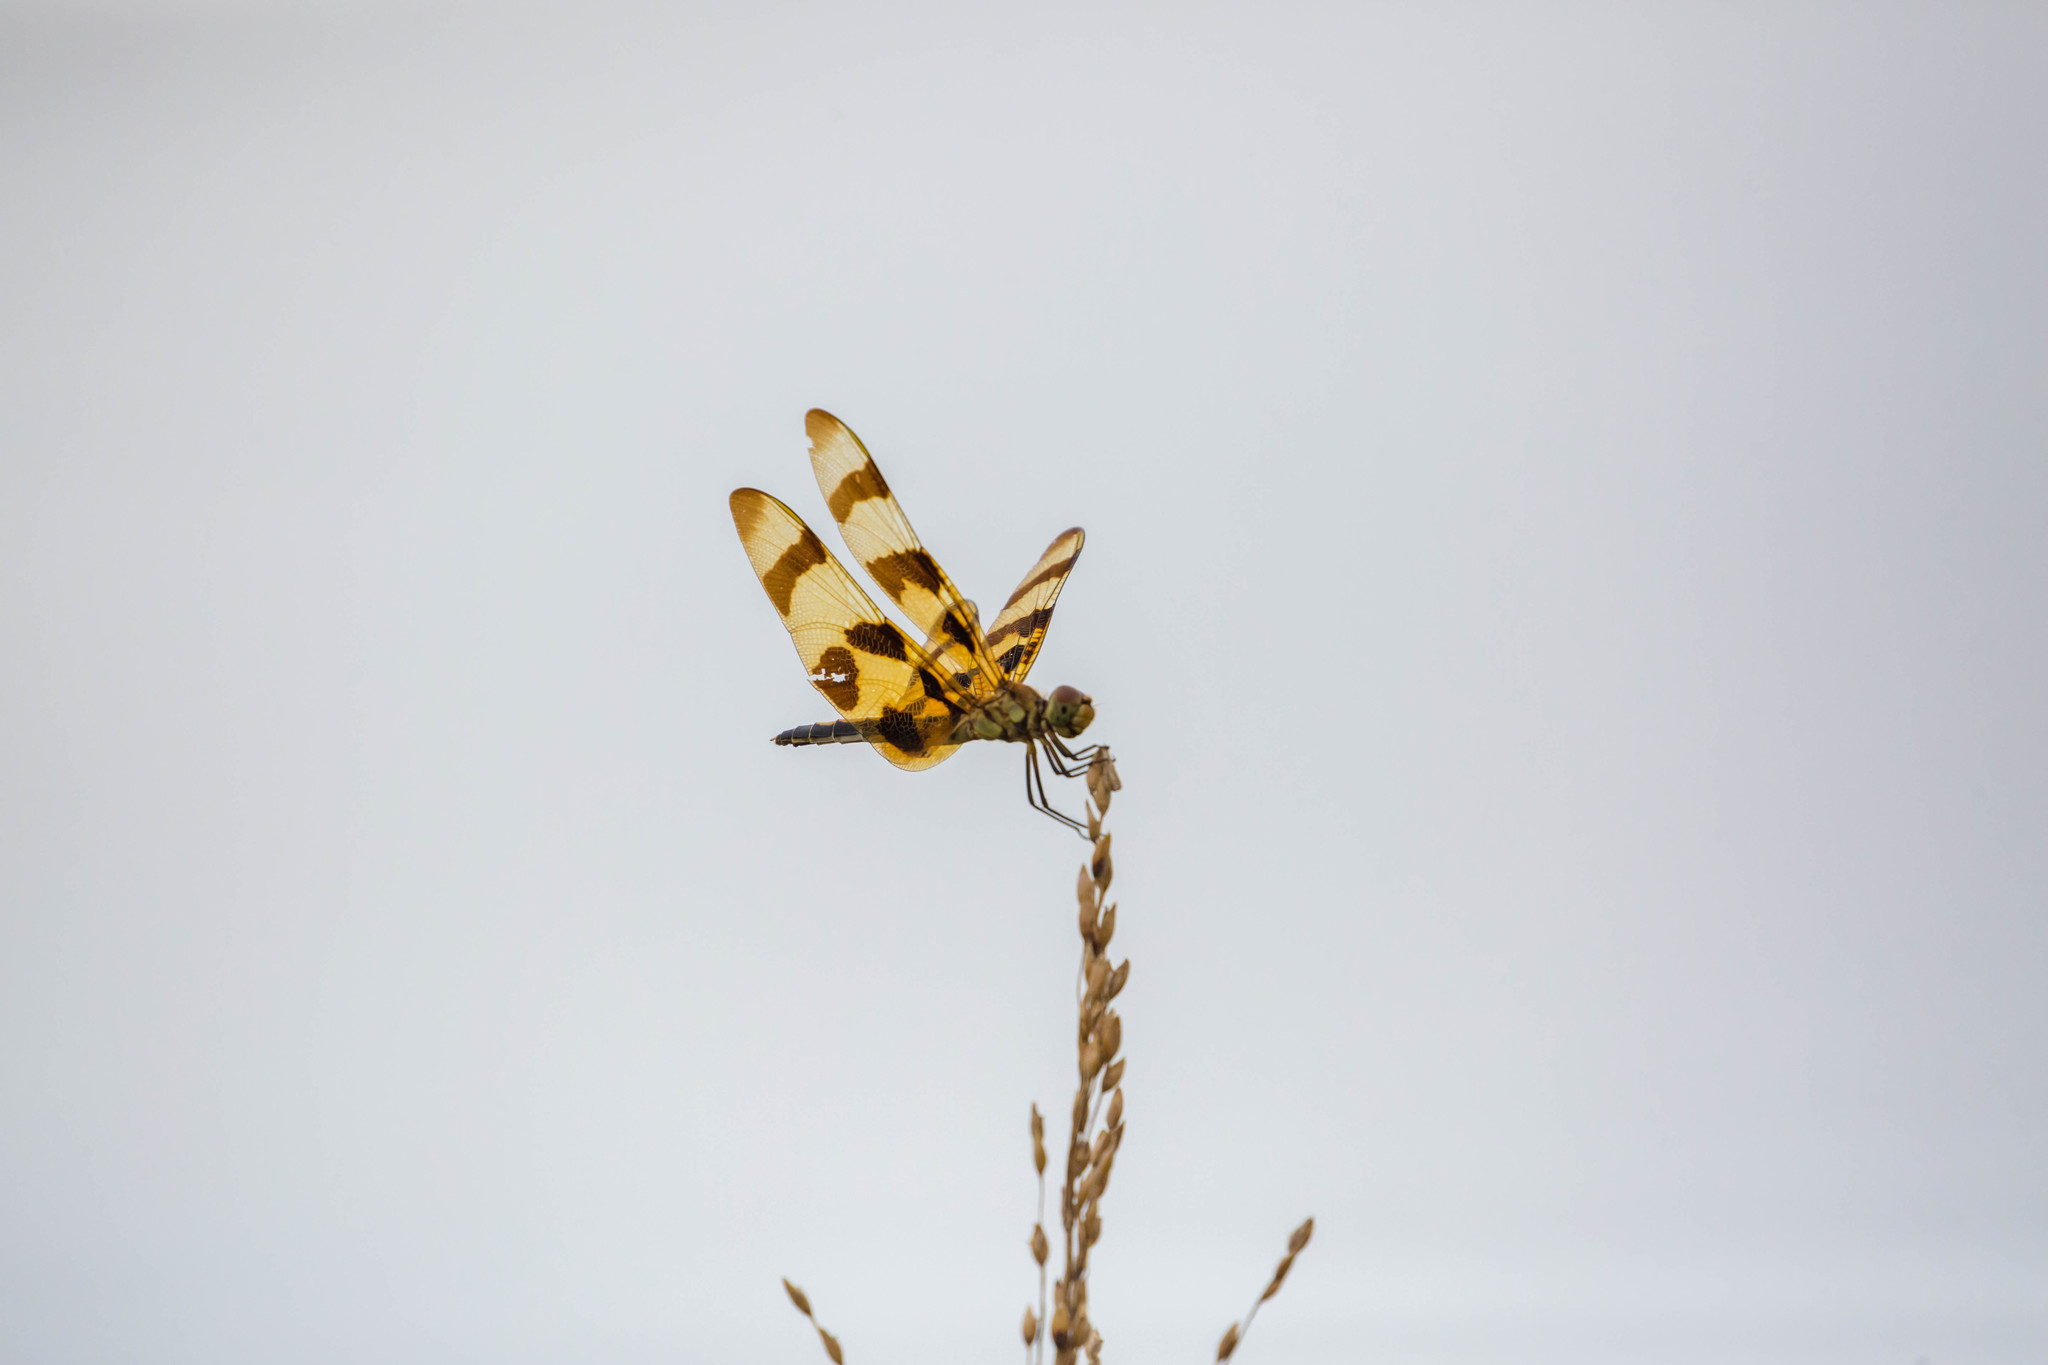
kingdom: Animalia
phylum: Arthropoda
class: Insecta
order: Odonata
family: Libellulidae
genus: Celithemis
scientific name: Celithemis eponina
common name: Halloween pennant
